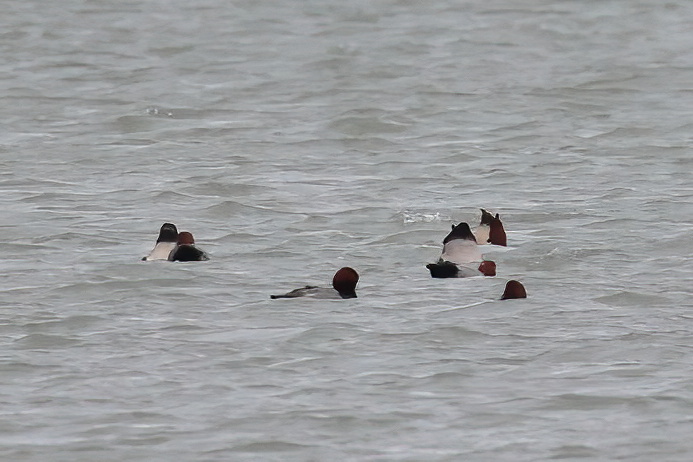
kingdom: Animalia
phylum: Chordata
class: Aves
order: Anseriformes
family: Anatidae
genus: Aythya
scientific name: Aythya americana
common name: Redhead
